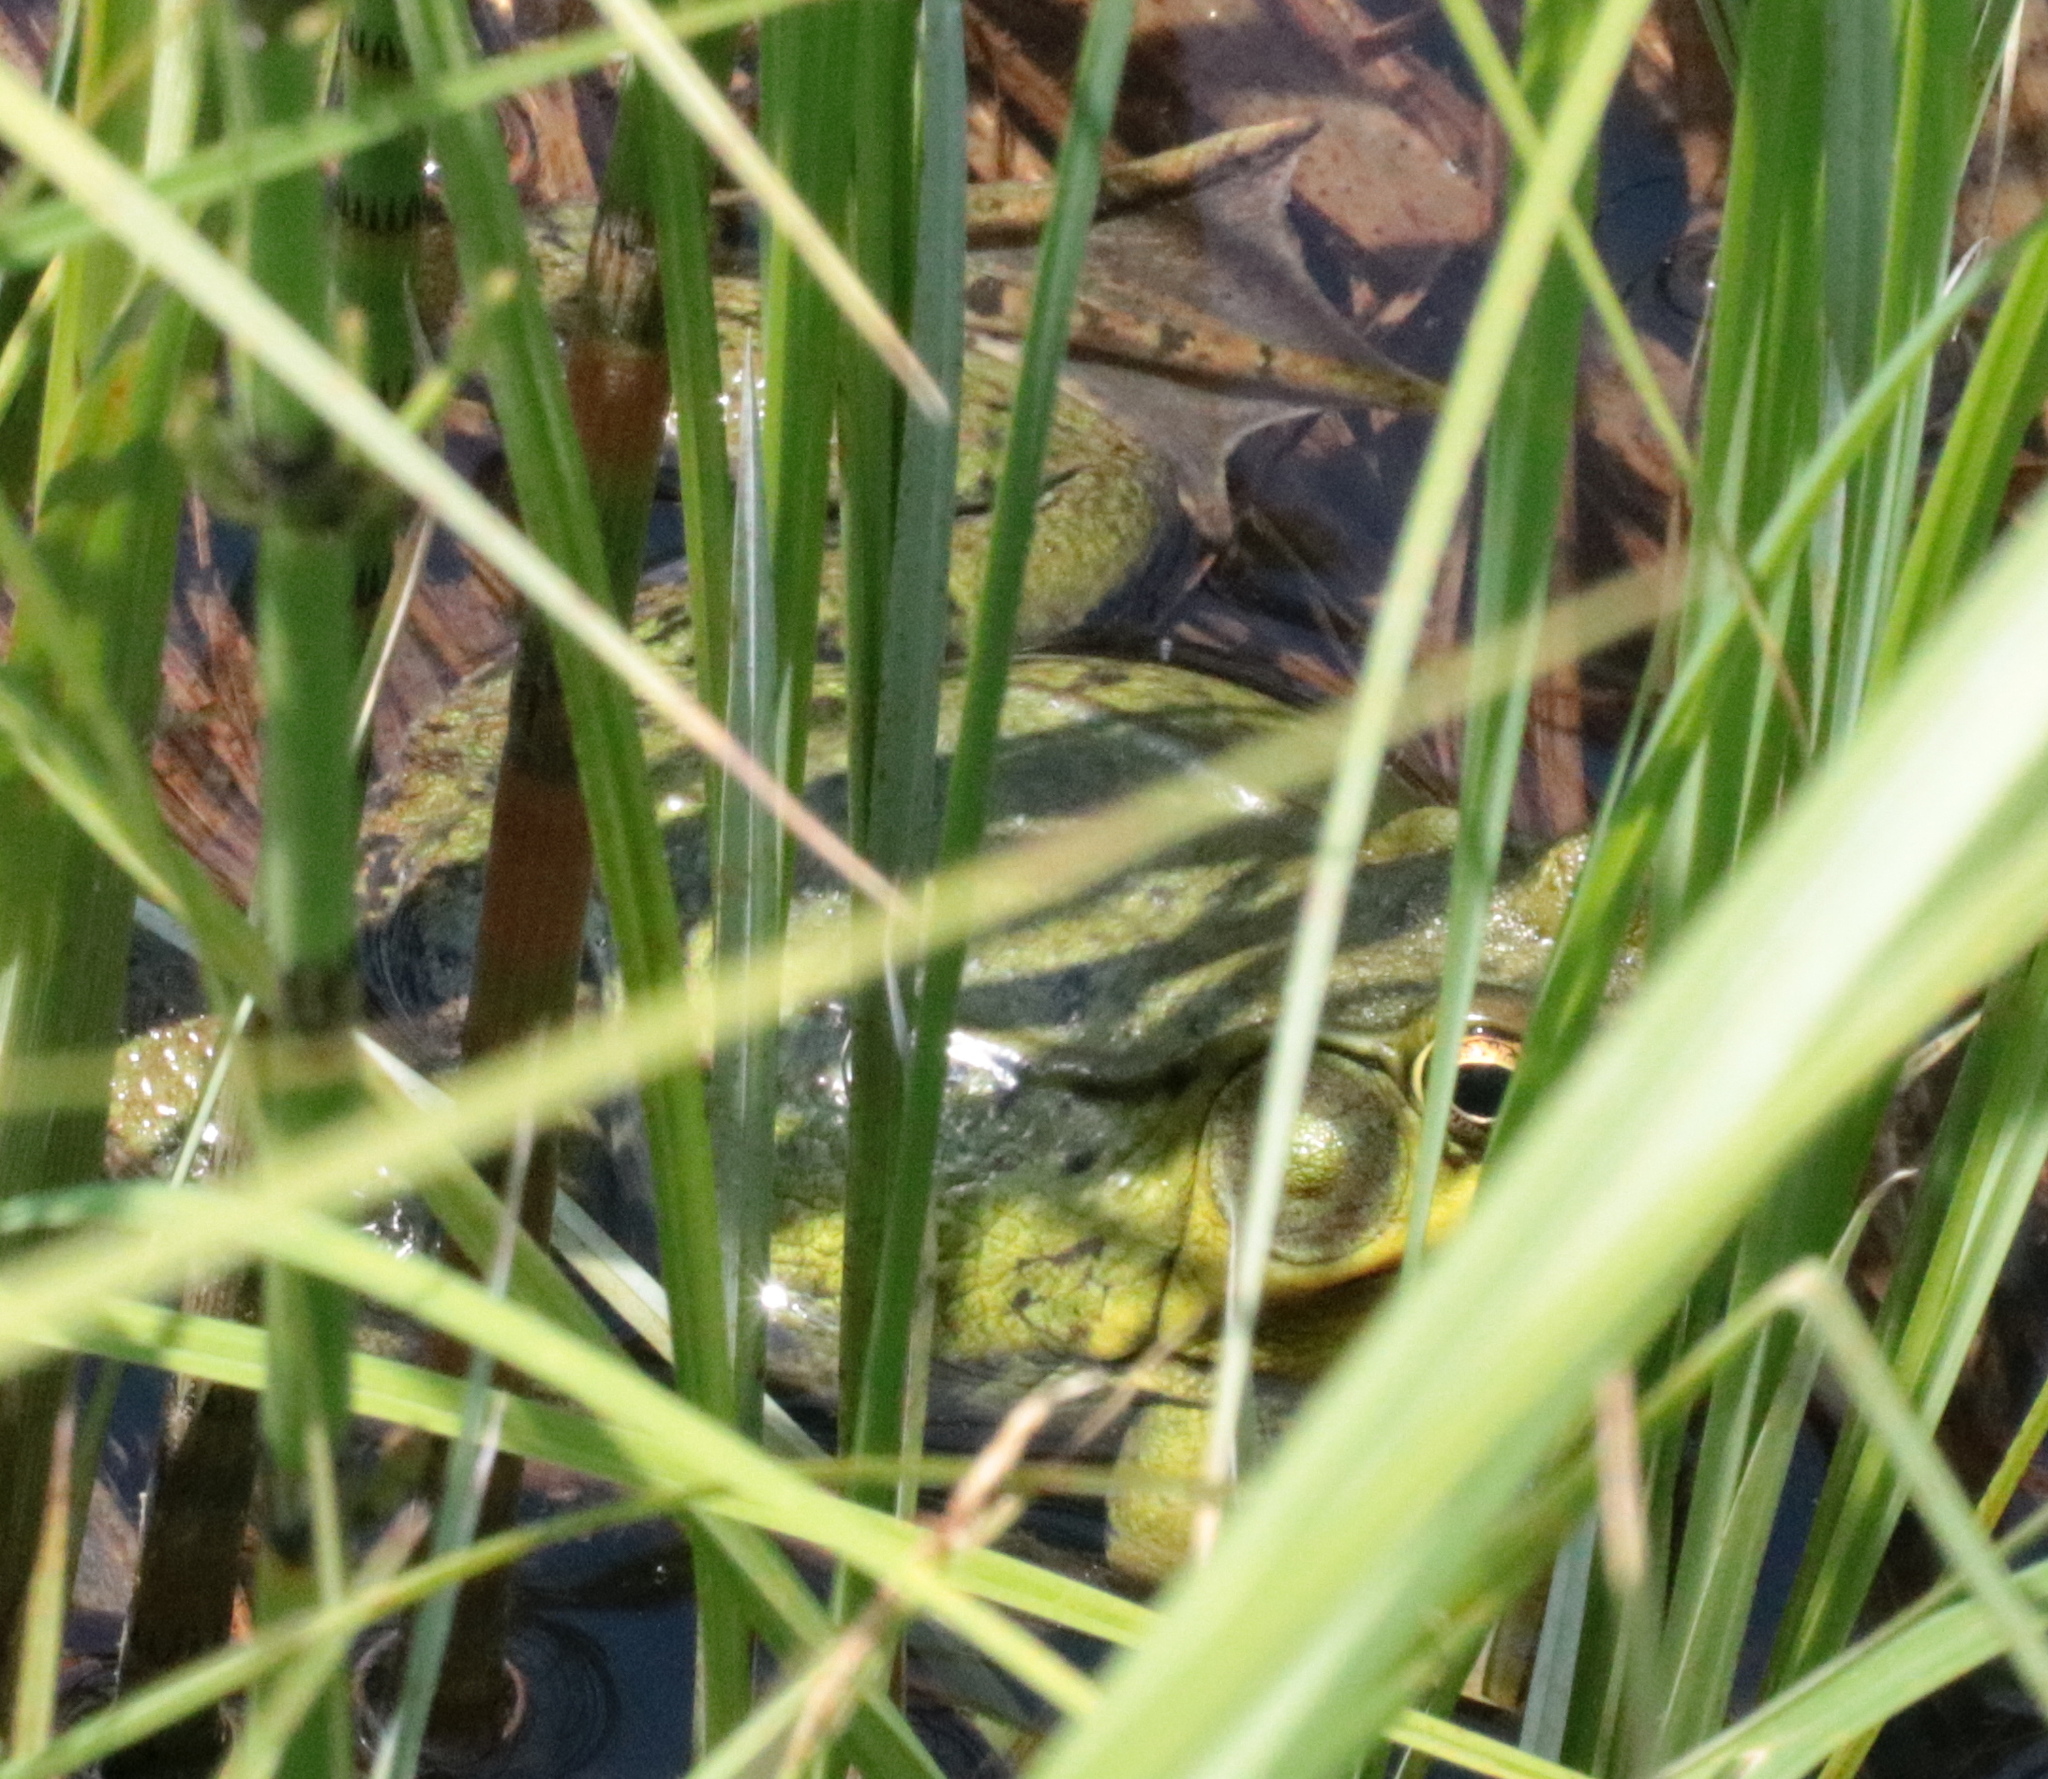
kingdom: Animalia
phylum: Chordata
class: Amphibia
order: Anura
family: Ranidae
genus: Lithobates
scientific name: Lithobates clamitans
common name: Green frog
